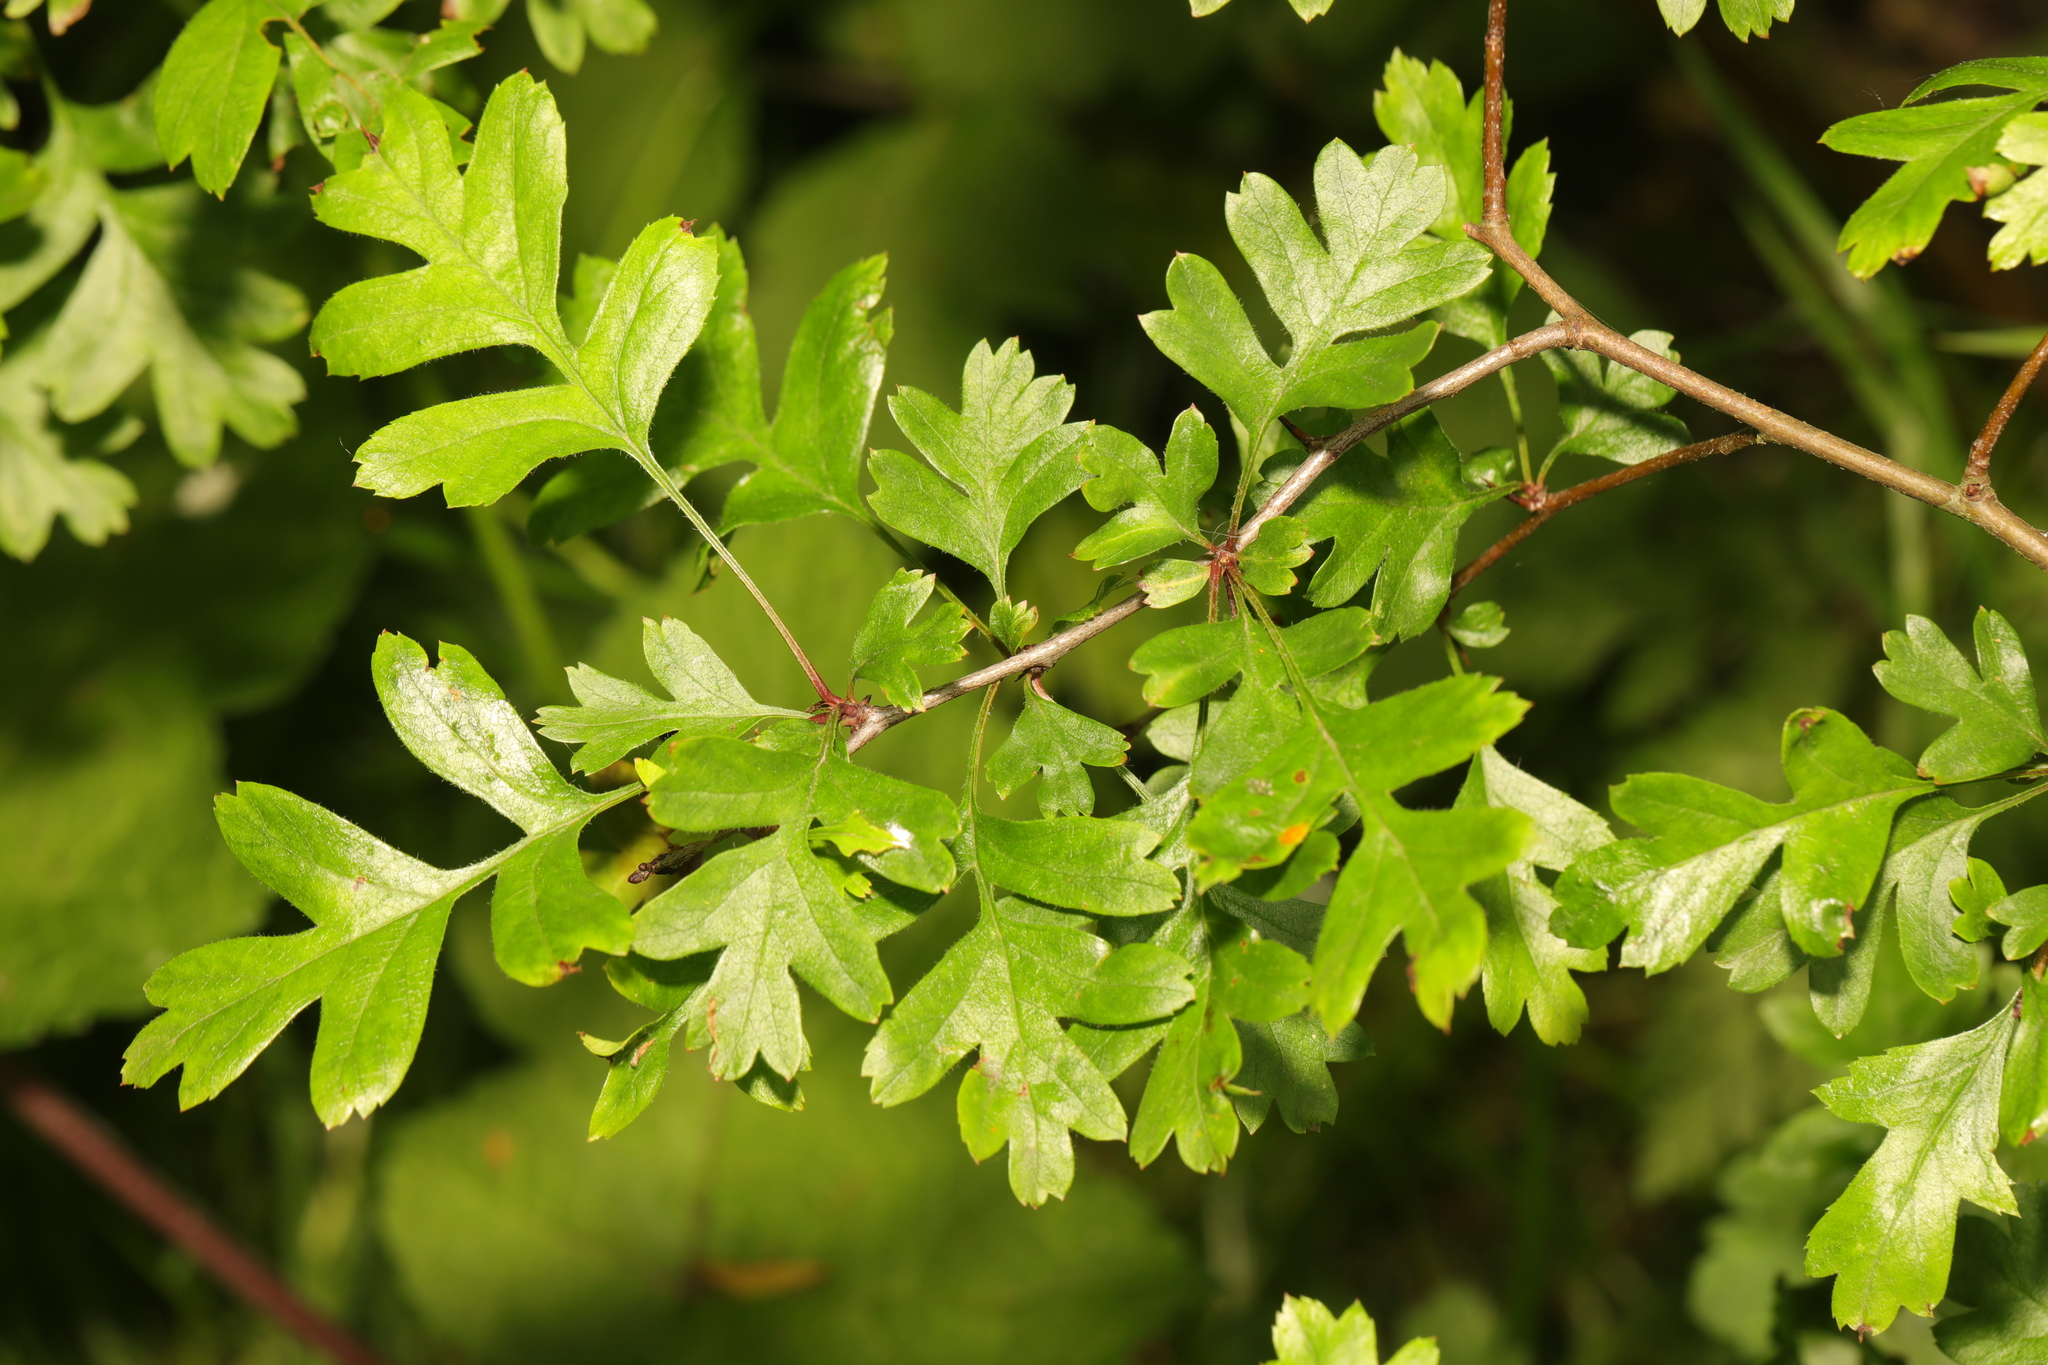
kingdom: Plantae
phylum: Tracheophyta
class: Magnoliopsida
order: Rosales
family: Rosaceae
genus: Crataegus
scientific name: Crataegus monogyna
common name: Hawthorn
